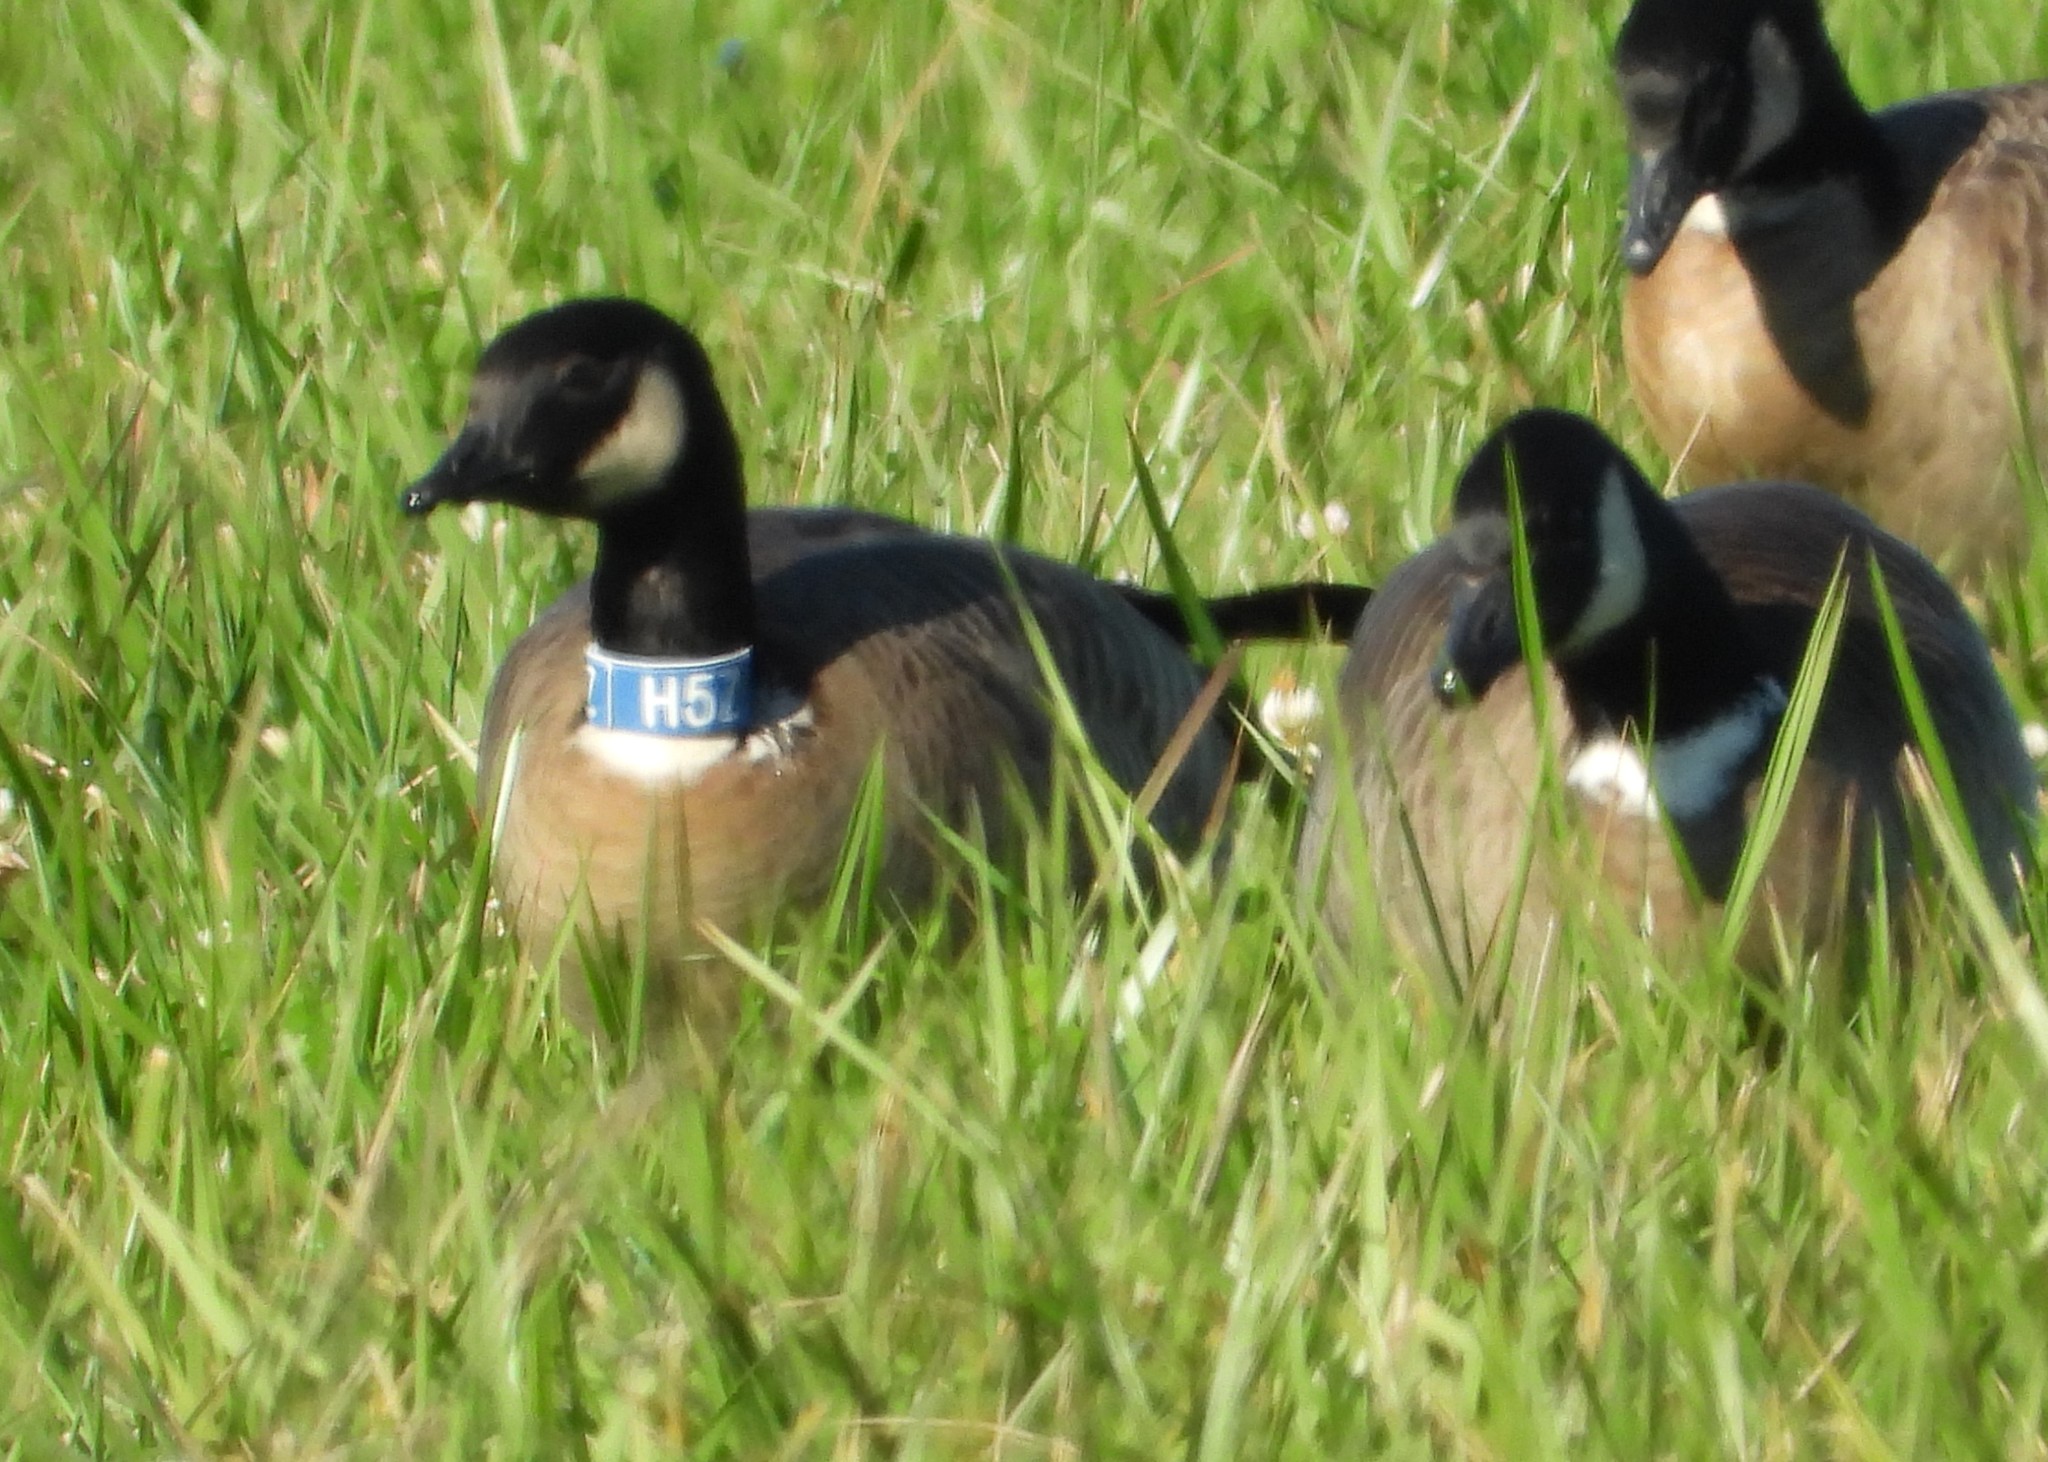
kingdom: Animalia
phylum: Chordata
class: Aves
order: Anseriformes
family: Anatidae
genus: Branta
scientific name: Branta hutchinsii
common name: Cackling goose
